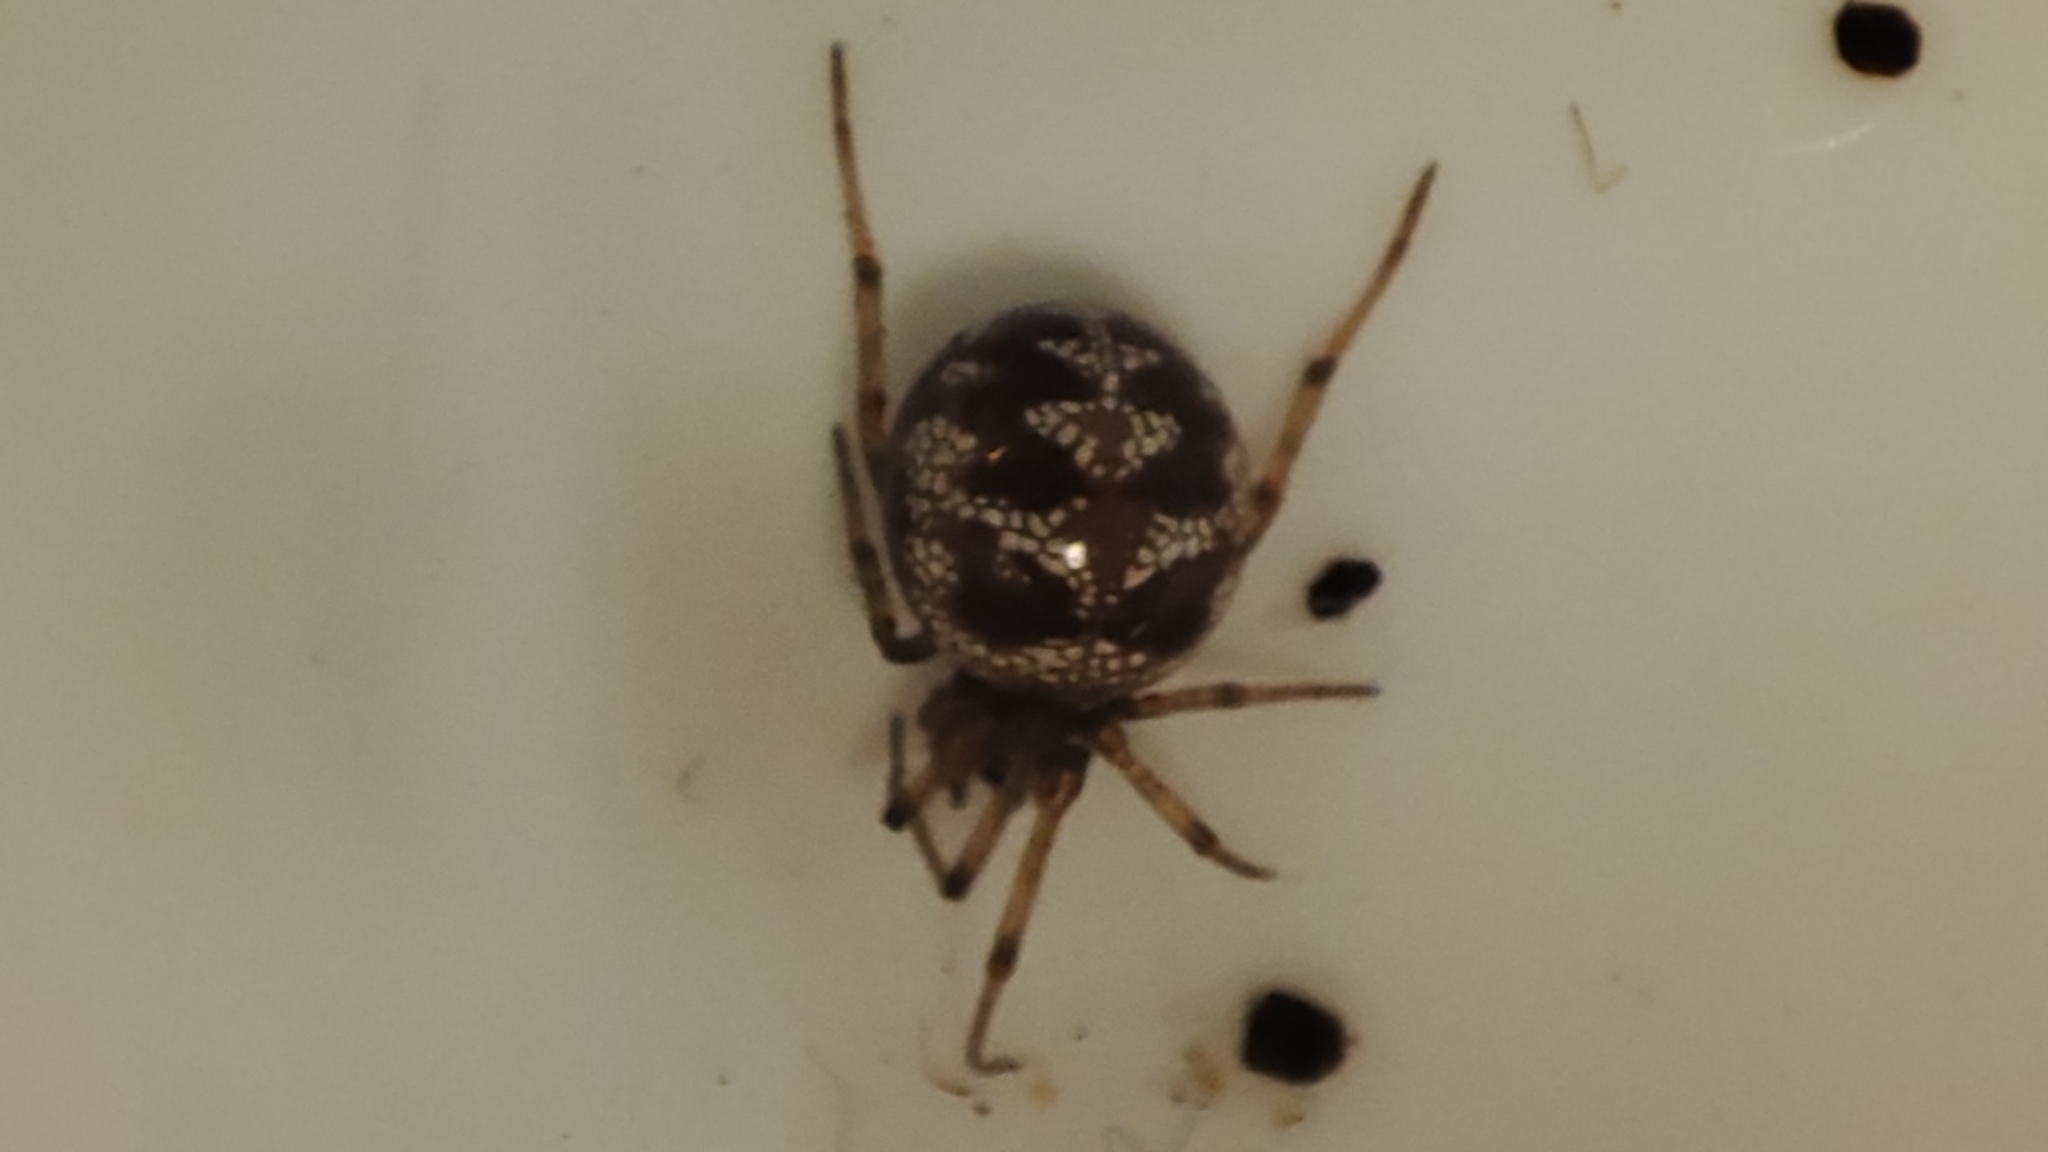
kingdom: Animalia
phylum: Arthropoda
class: Arachnida
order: Araneae
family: Theridiidae
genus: Steatoda
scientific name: Steatoda triangulosa
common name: Triangulate bud spider
